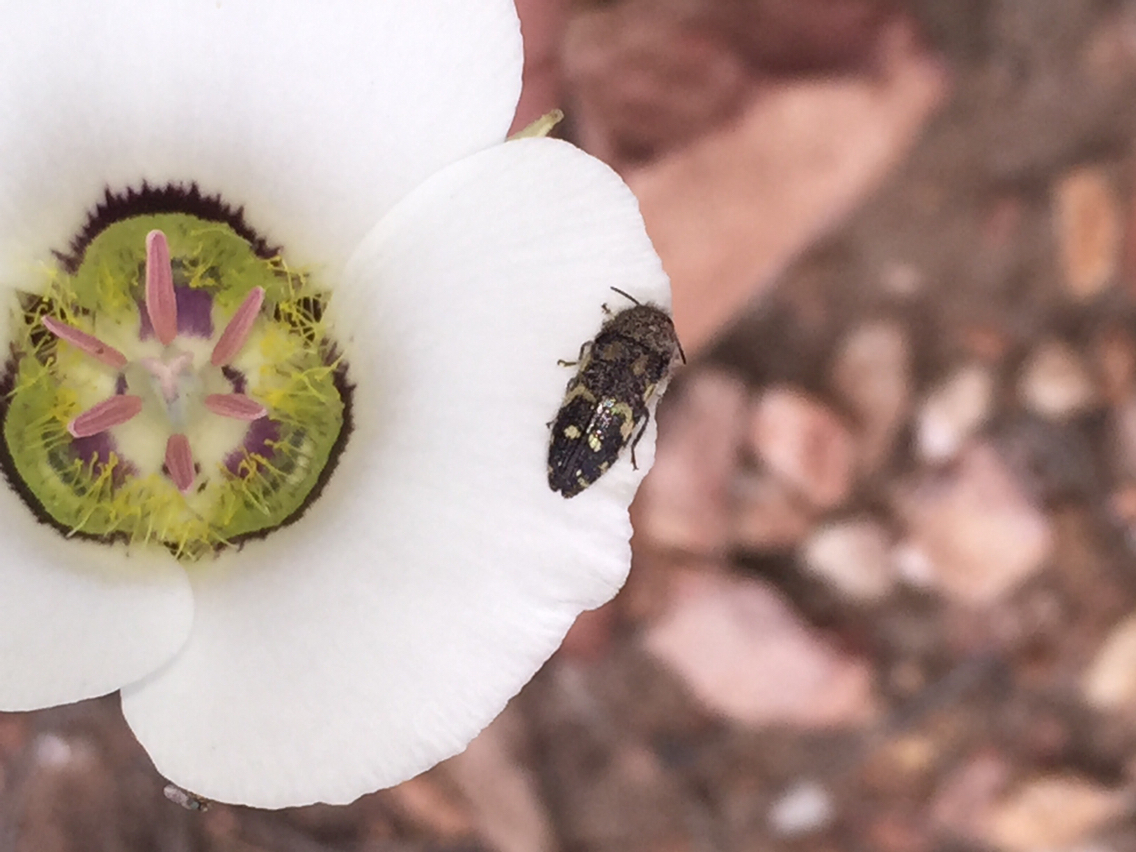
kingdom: Animalia
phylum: Arthropoda
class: Insecta
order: Coleoptera
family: Buprestidae
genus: Acmaeodera
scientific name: Acmaeodera mixta
